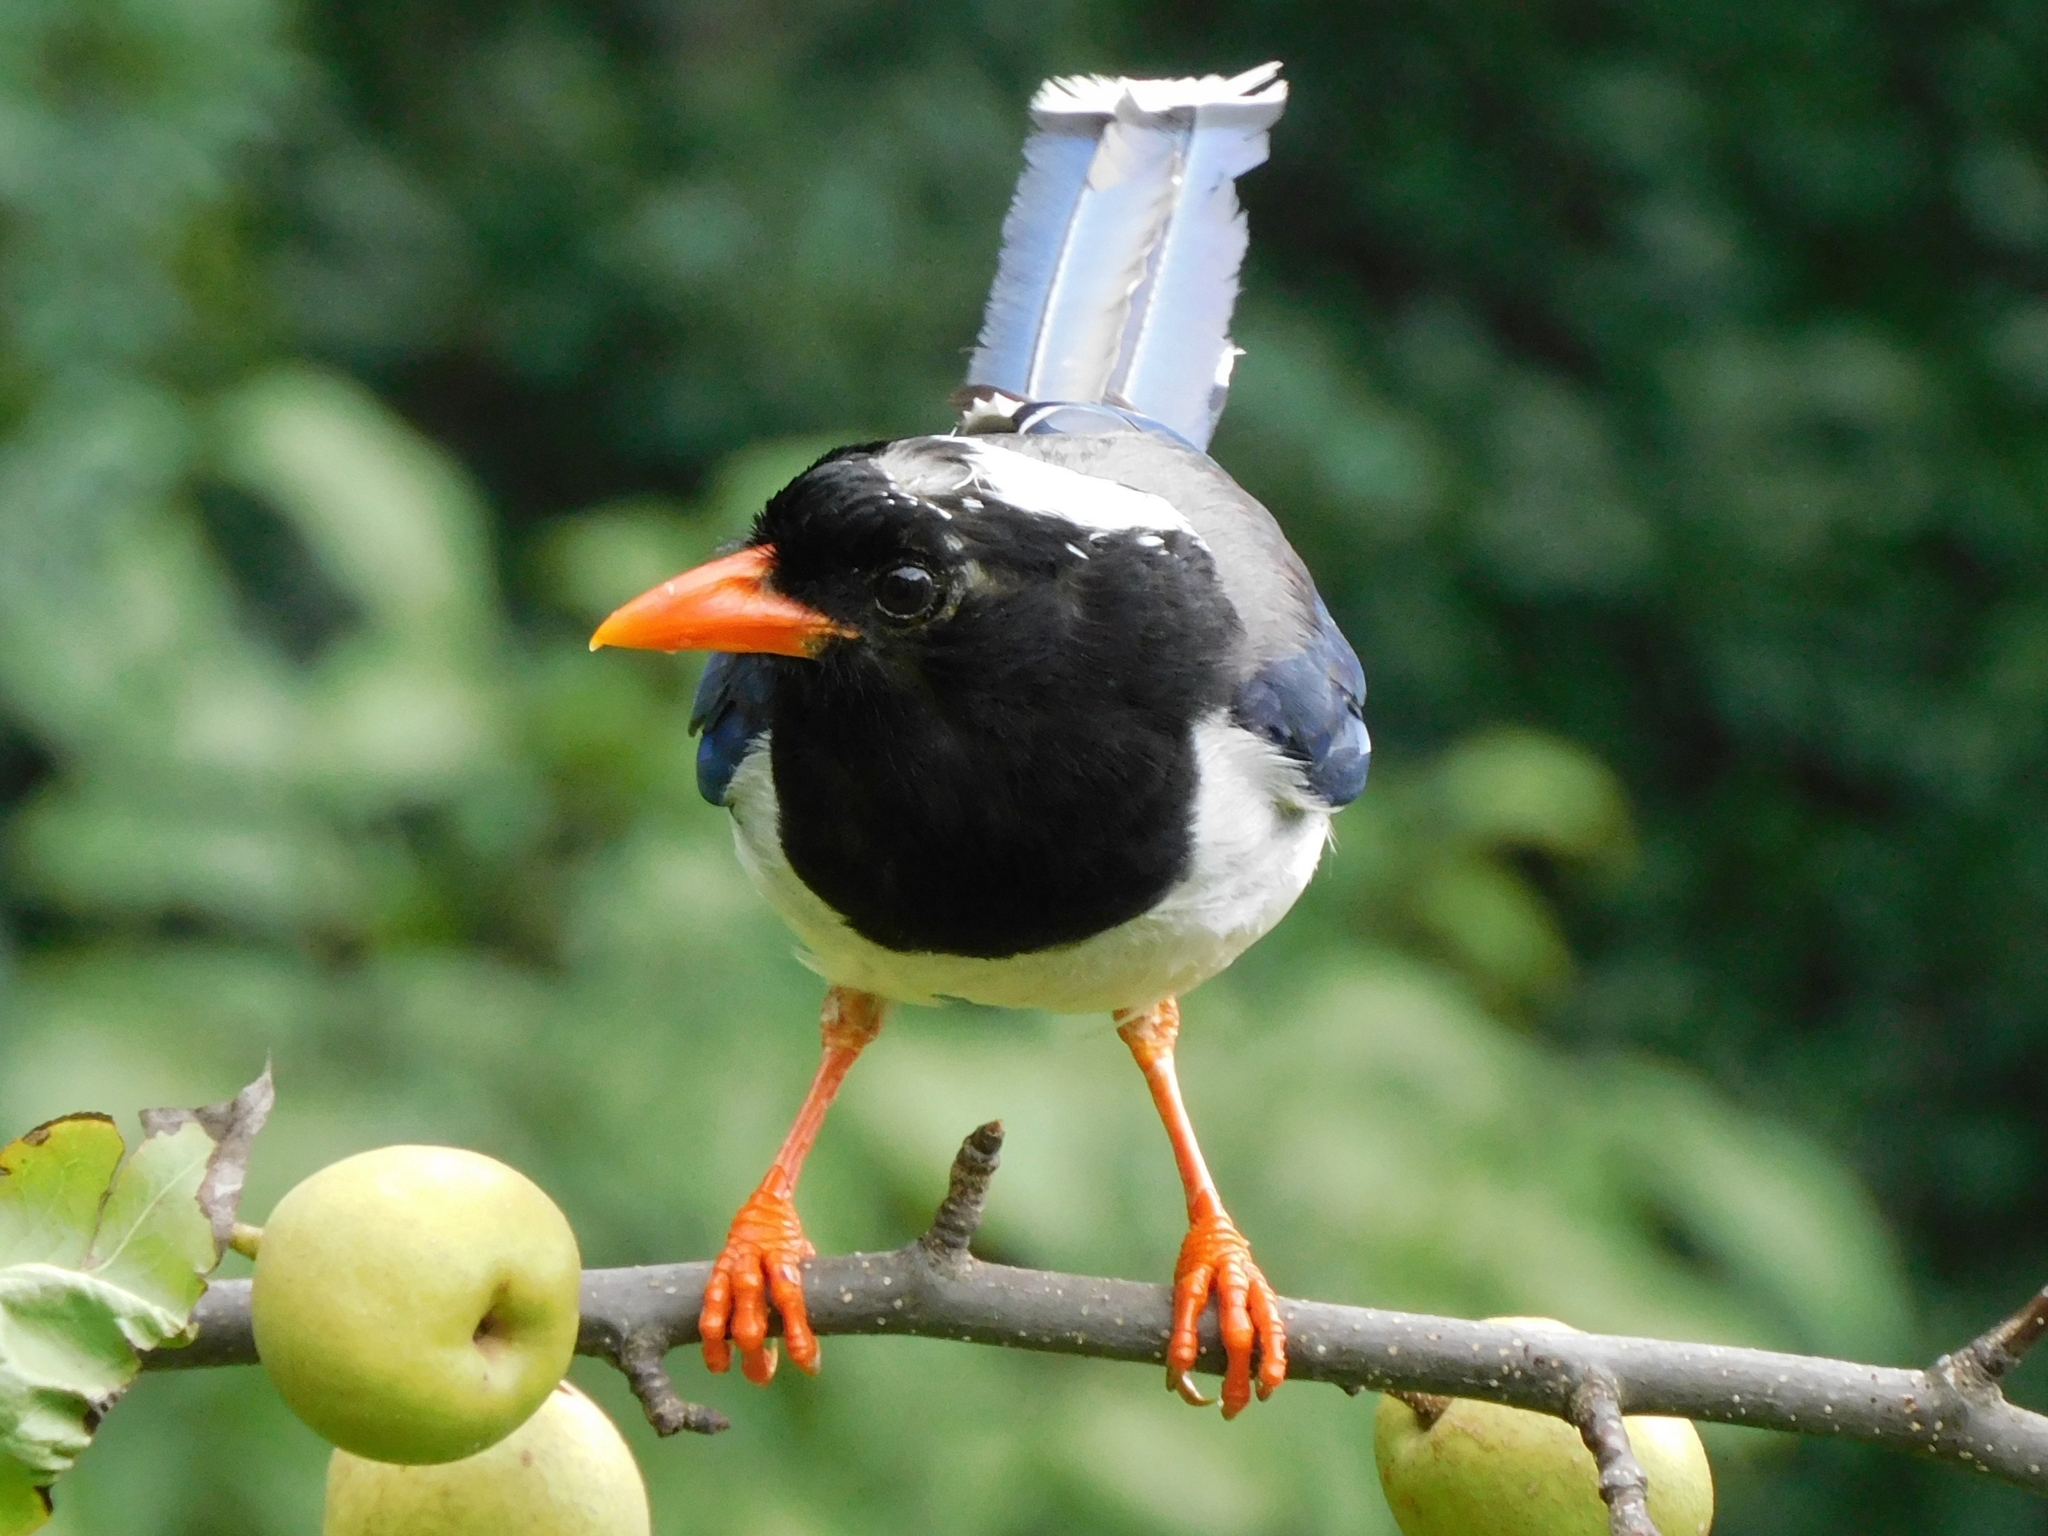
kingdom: Animalia
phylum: Chordata
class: Aves
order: Passeriformes
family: Corvidae
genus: Urocissa
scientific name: Urocissa erythroryncha
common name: Red-billed blue magpie
